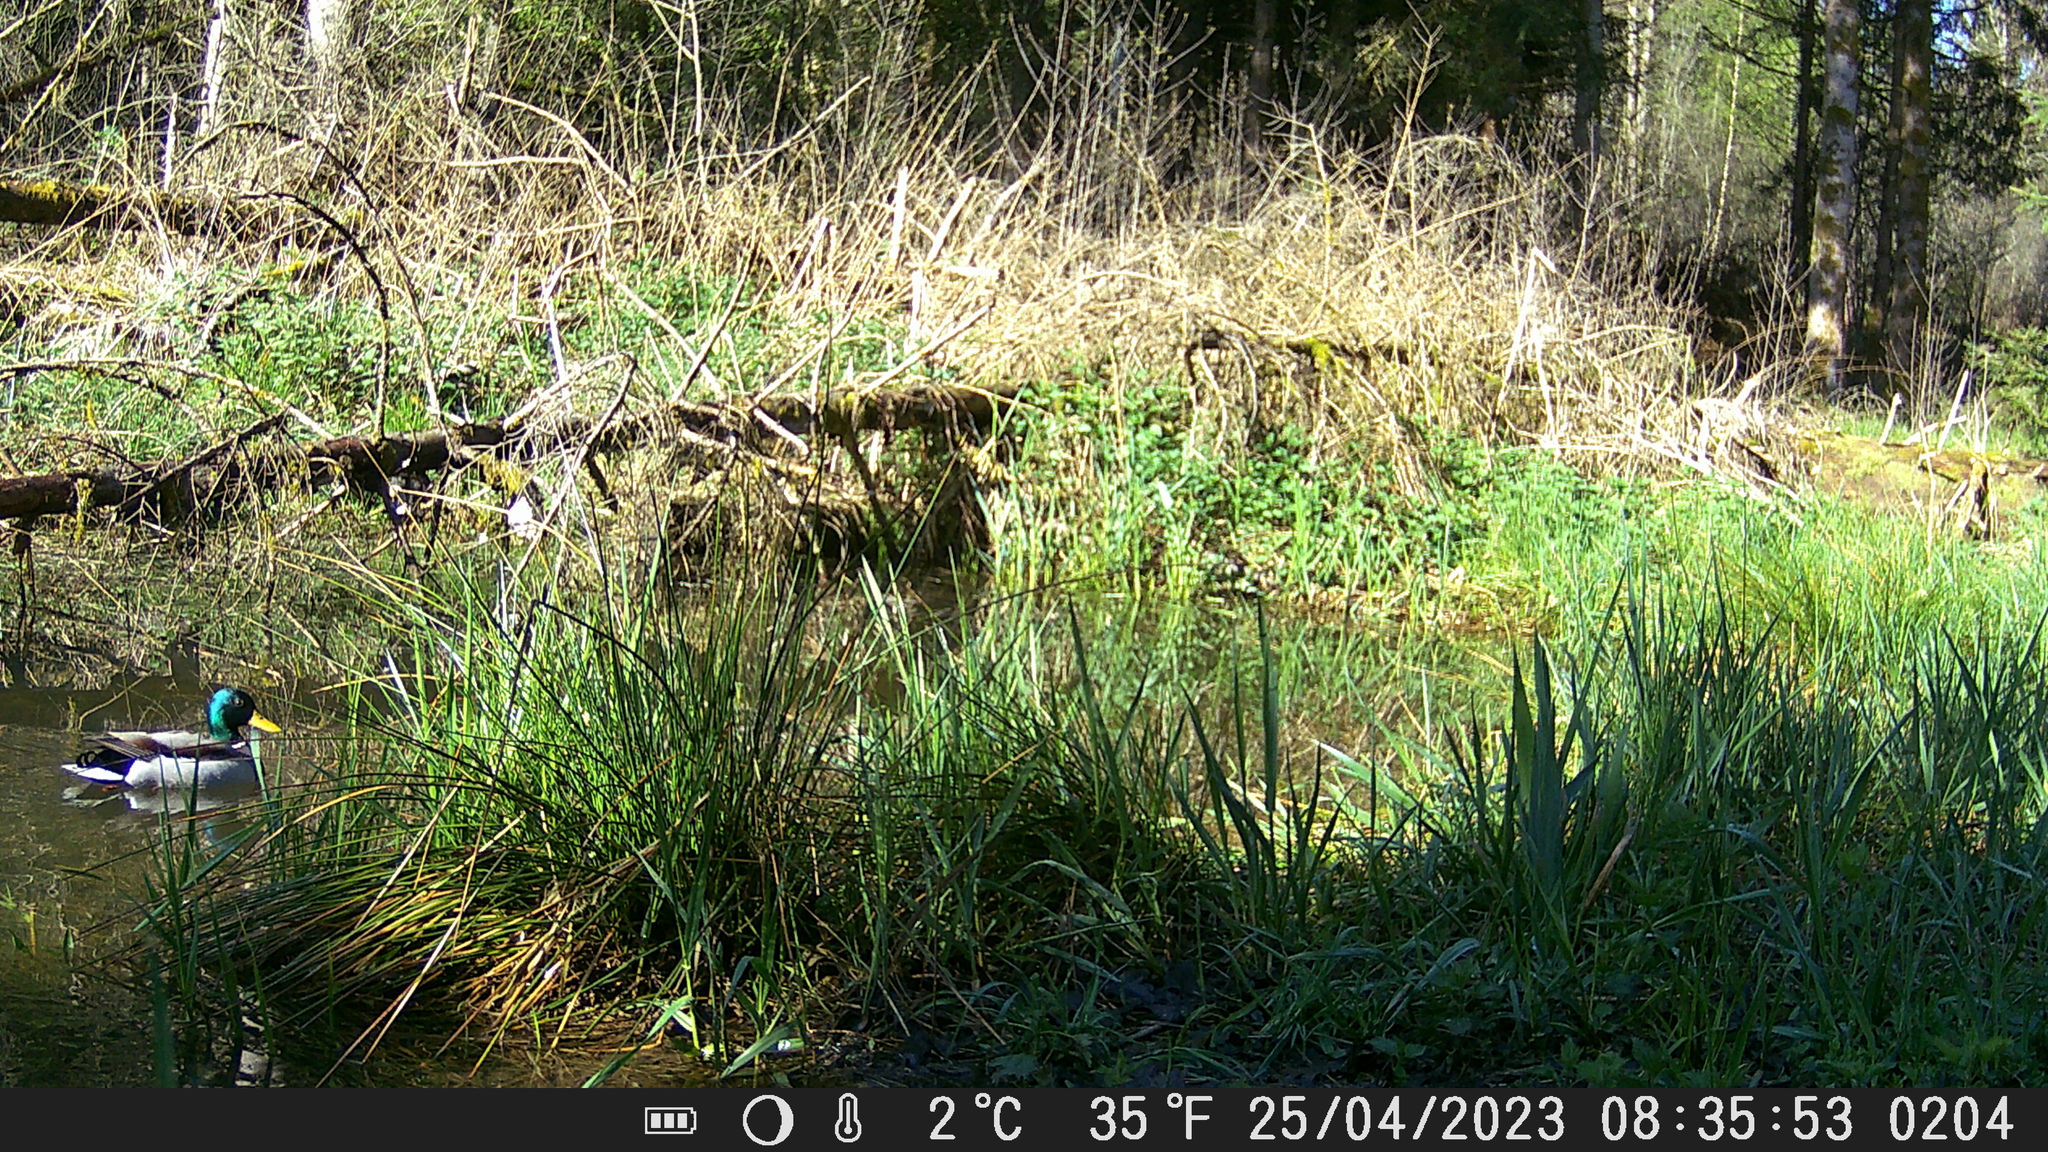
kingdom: Animalia
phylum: Chordata
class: Aves
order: Anseriformes
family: Anatidae
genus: Anas
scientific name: Anas platyrhynchos
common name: Mallard
